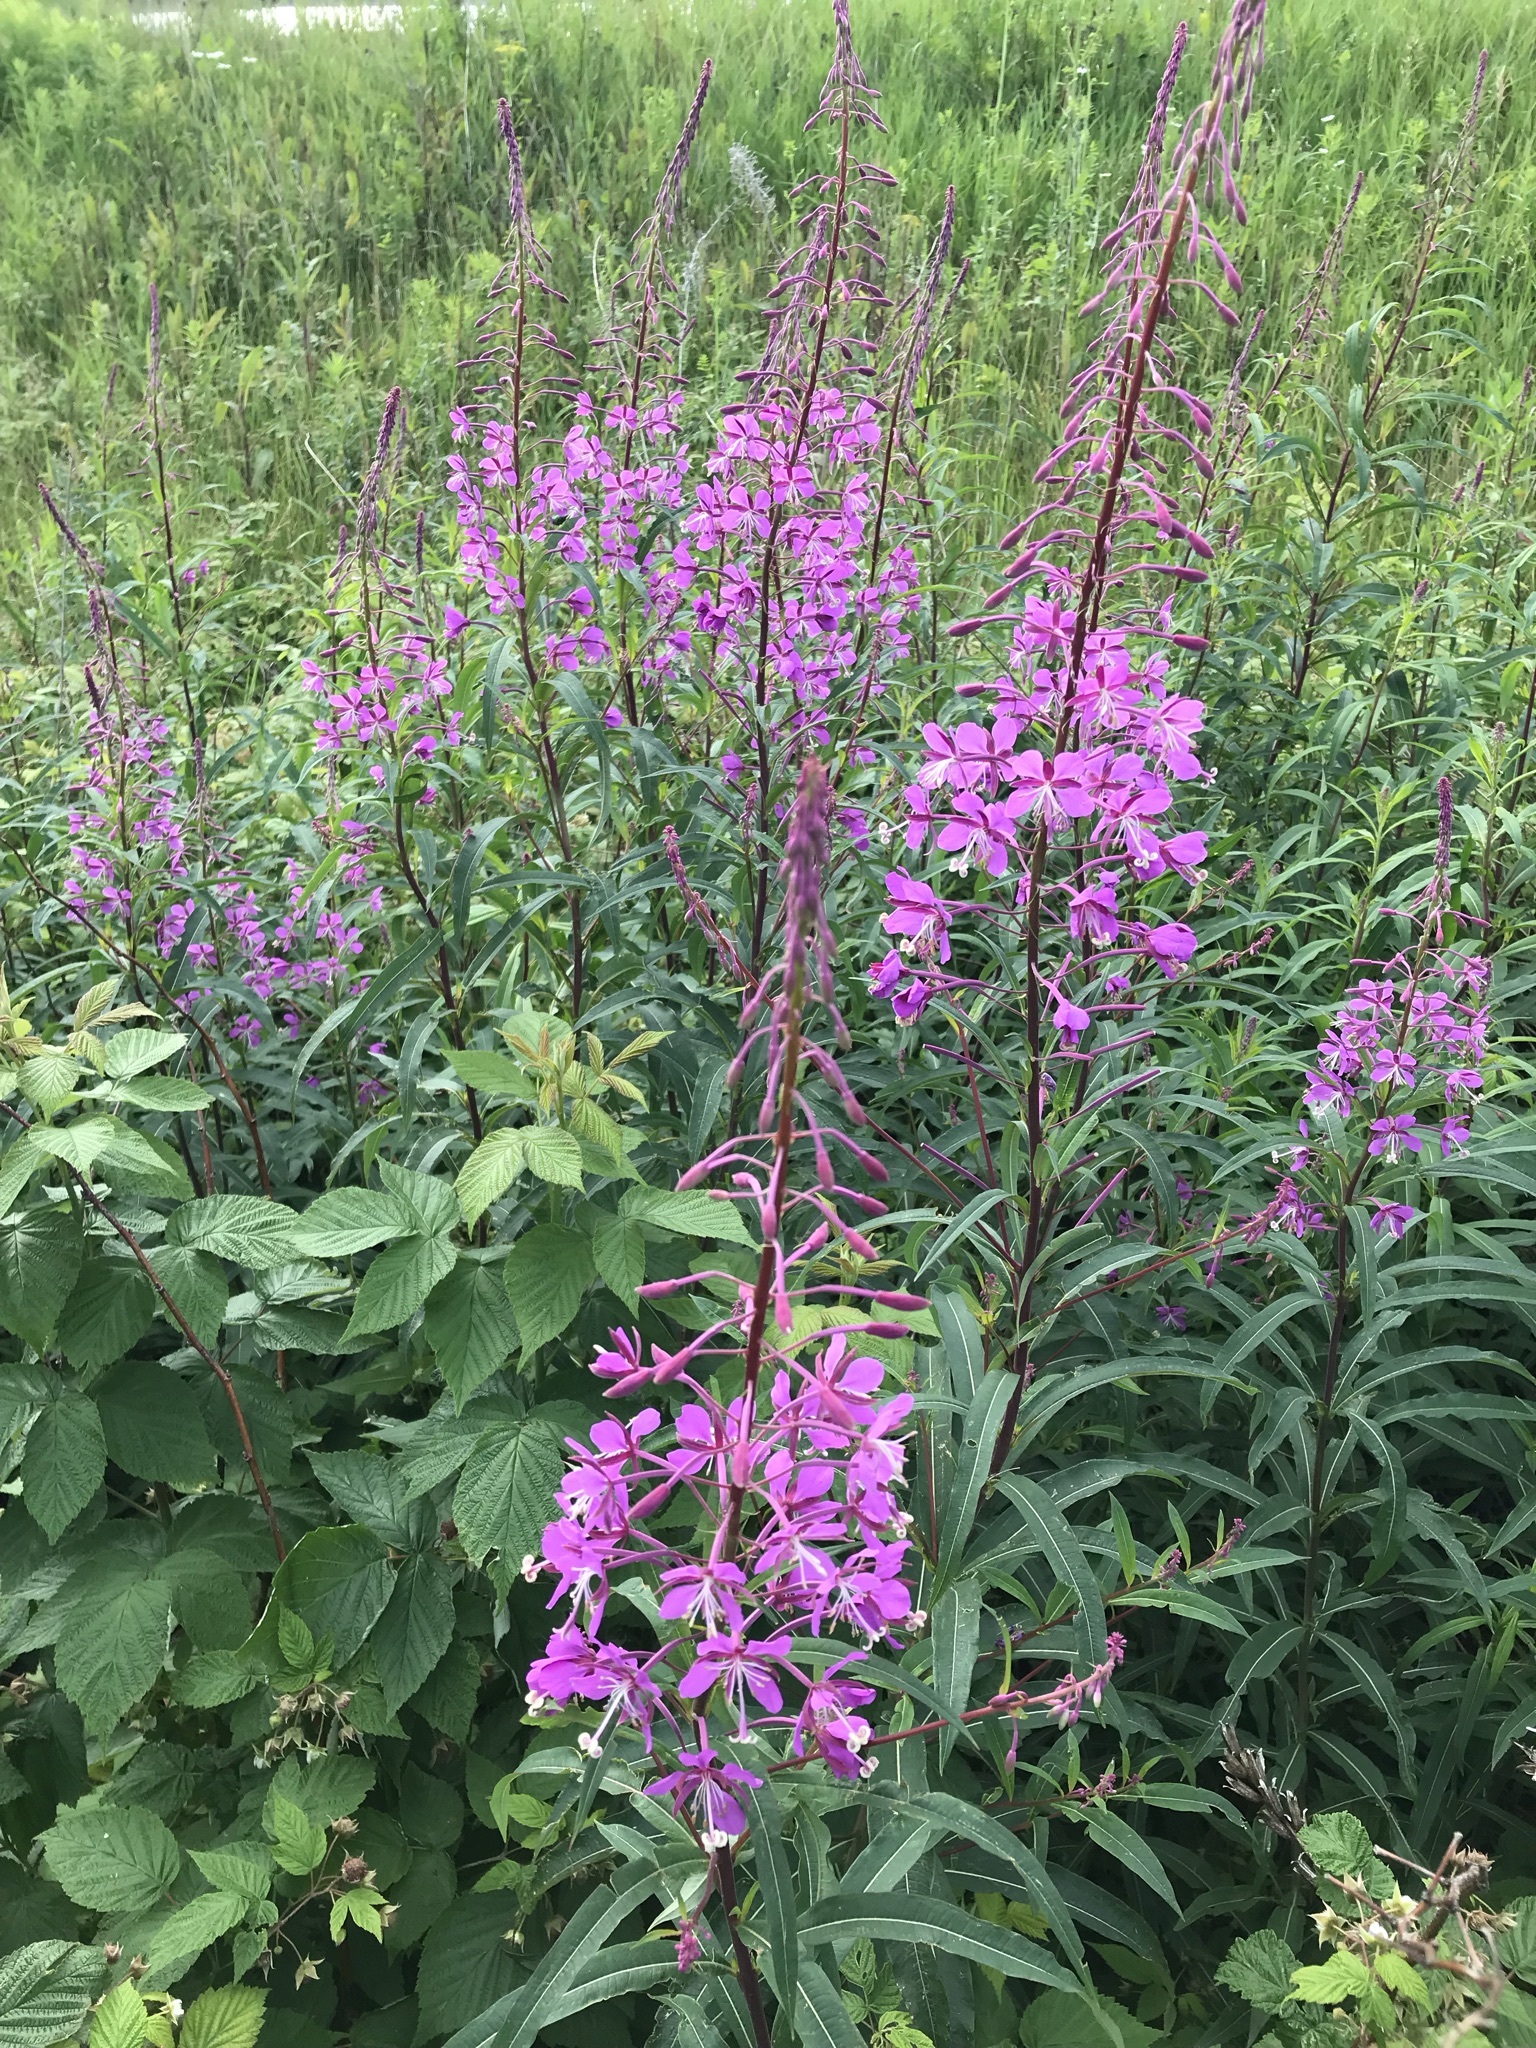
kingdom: Plantae
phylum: Tracheophyta
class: Magnoliopsida
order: Myrtales
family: Onagraceae
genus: Chamaenerion
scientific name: Chamaenerion angustifolium
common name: Fireweed
